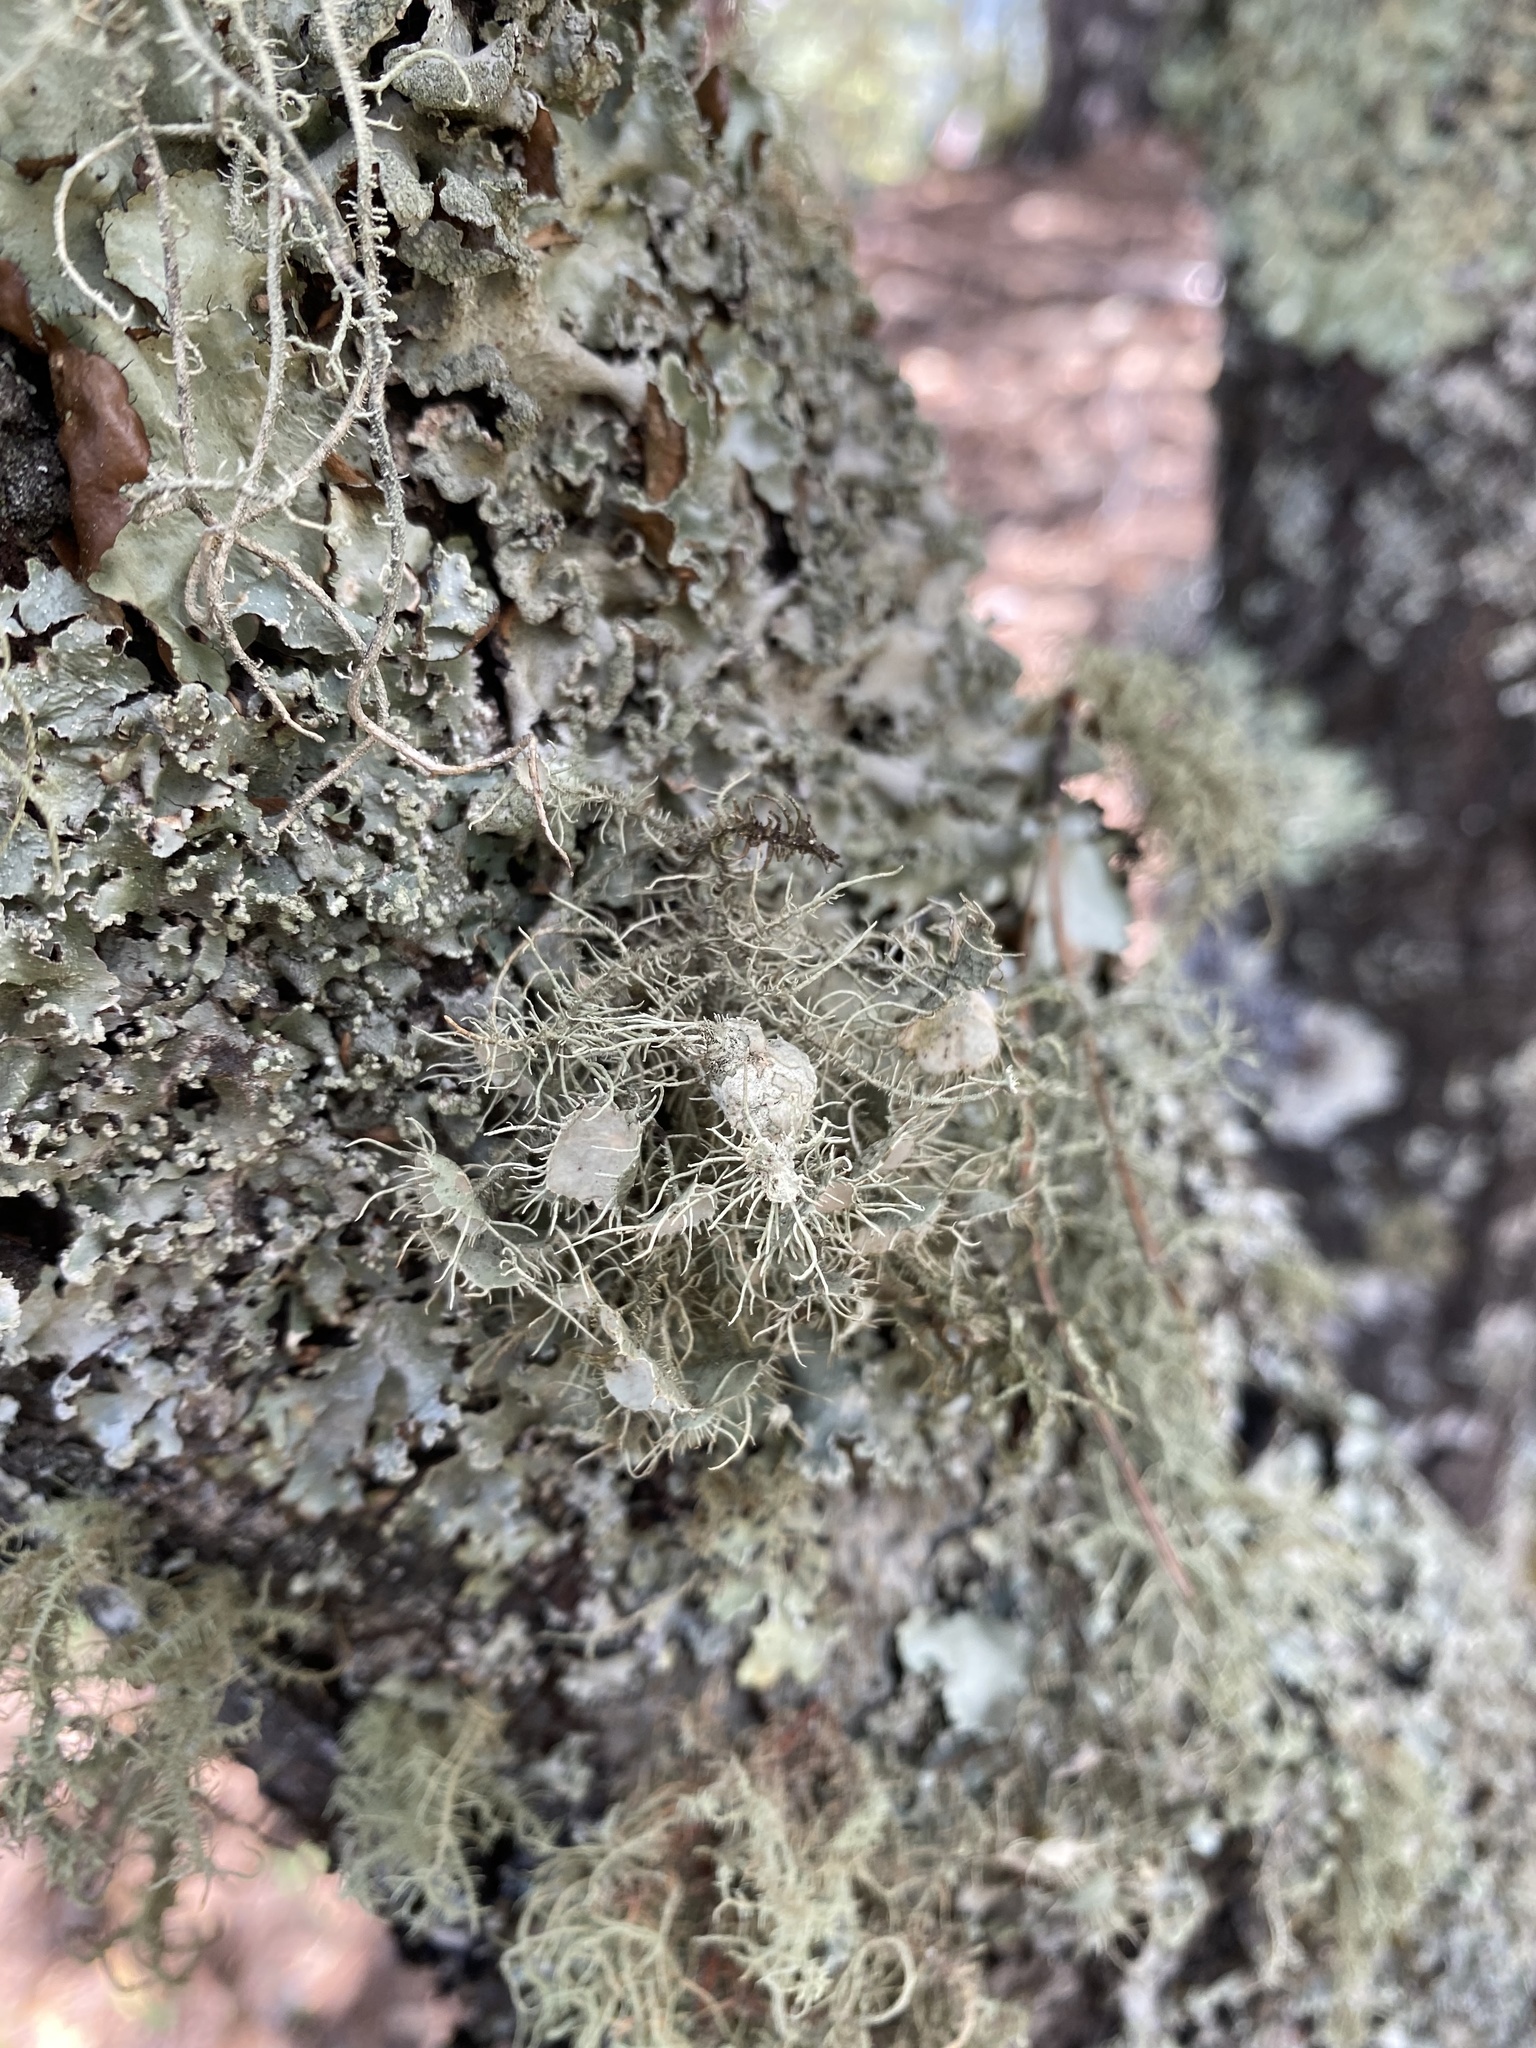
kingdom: Fungi
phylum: Ascomycota
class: Lecanoromycetes
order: Lecanorales
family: Parmeliaceae
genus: Usnea
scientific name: Usnea
